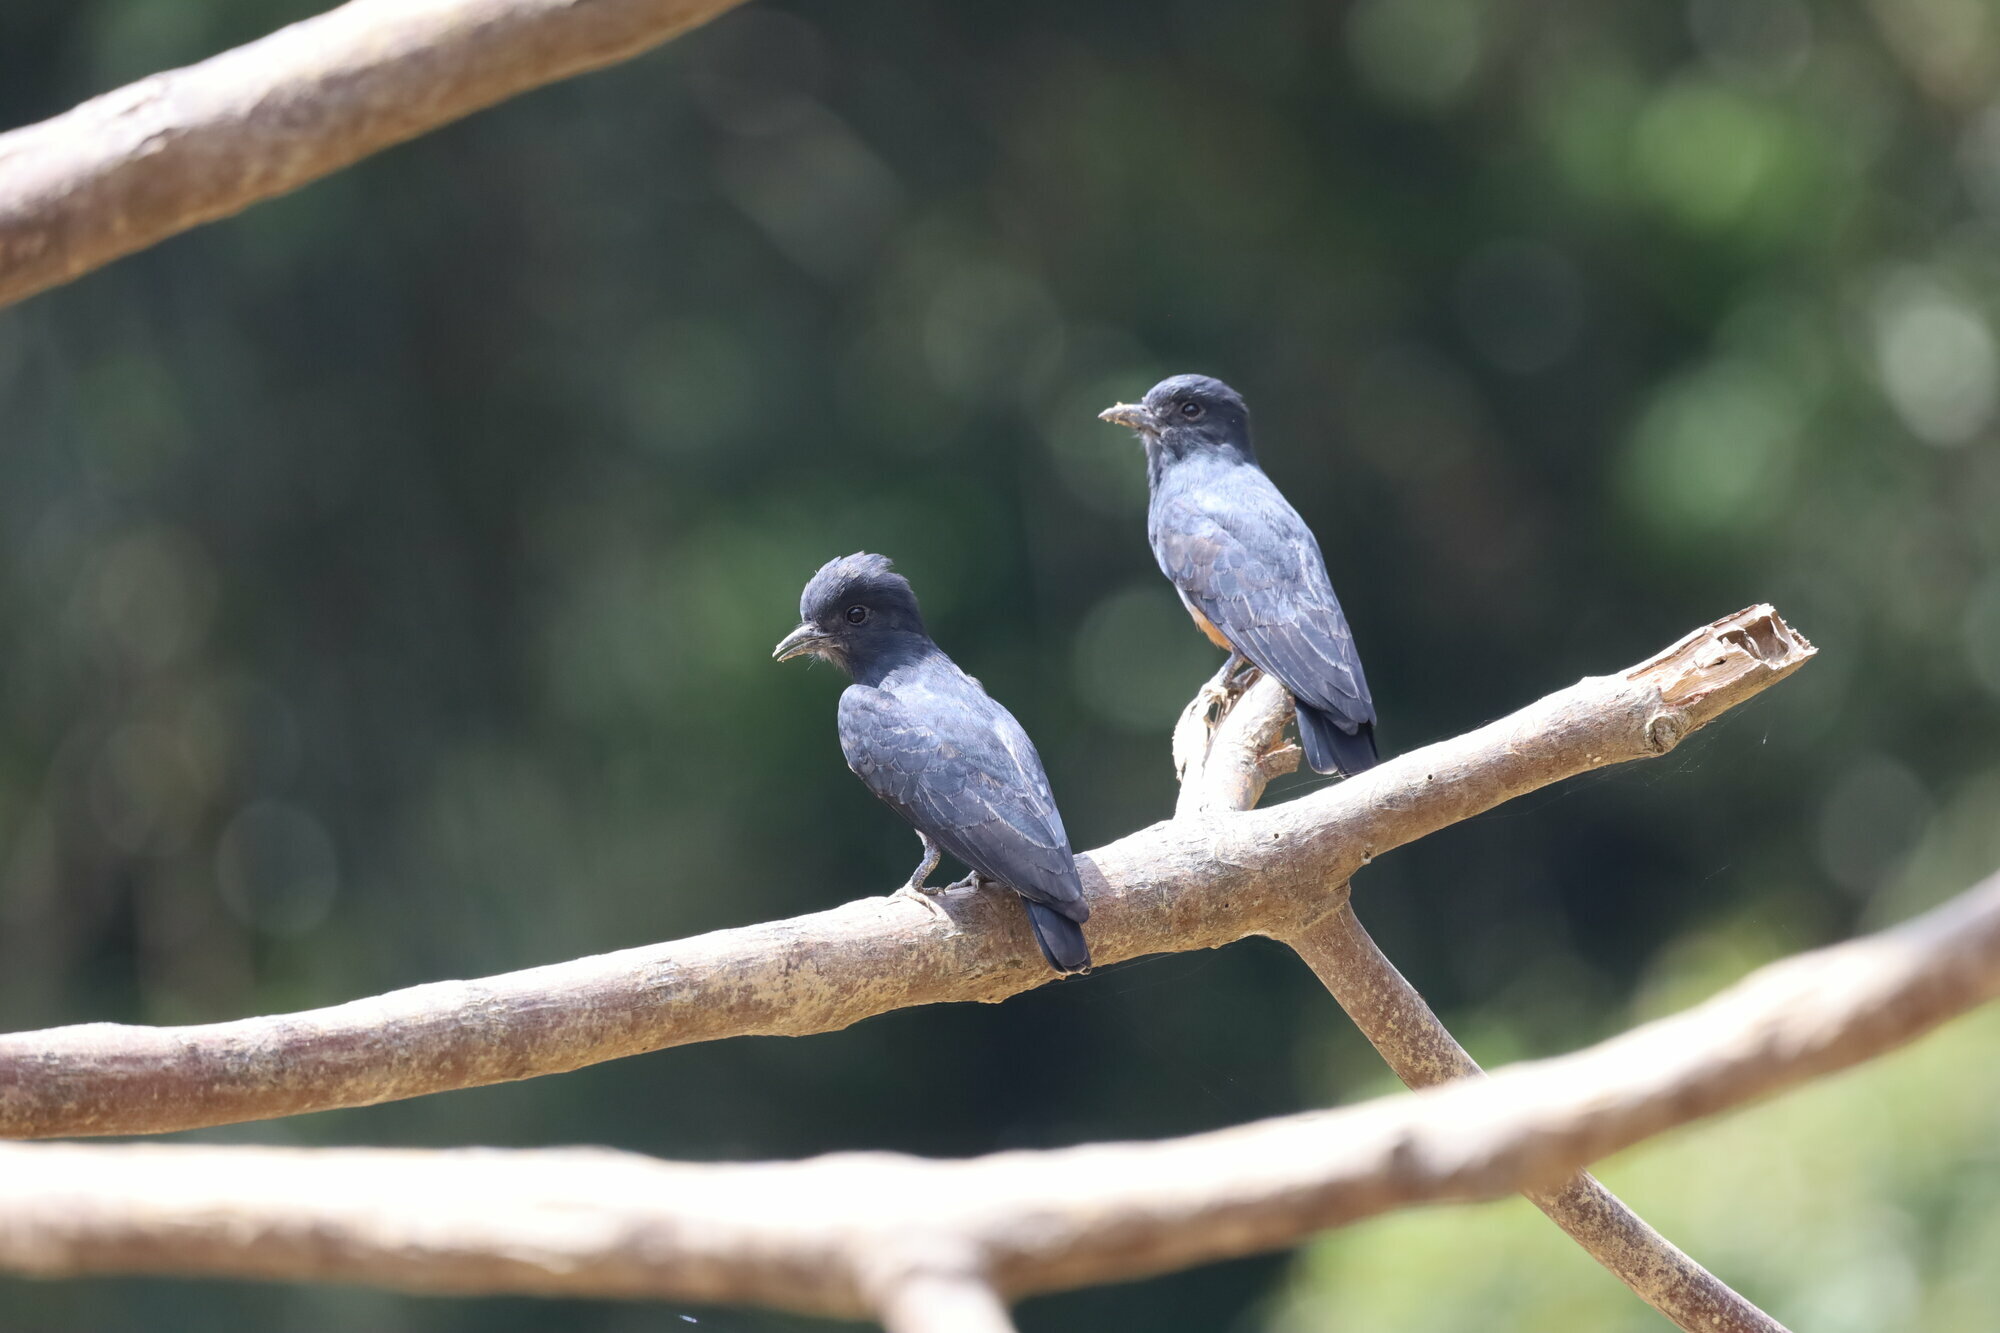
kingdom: Animalia
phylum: Chordata
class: Aves
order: Piciformes
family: Bucconidae
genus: Chelidoptera
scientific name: Chelidoptera tenebrosa
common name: Swallow-winged puffbird
